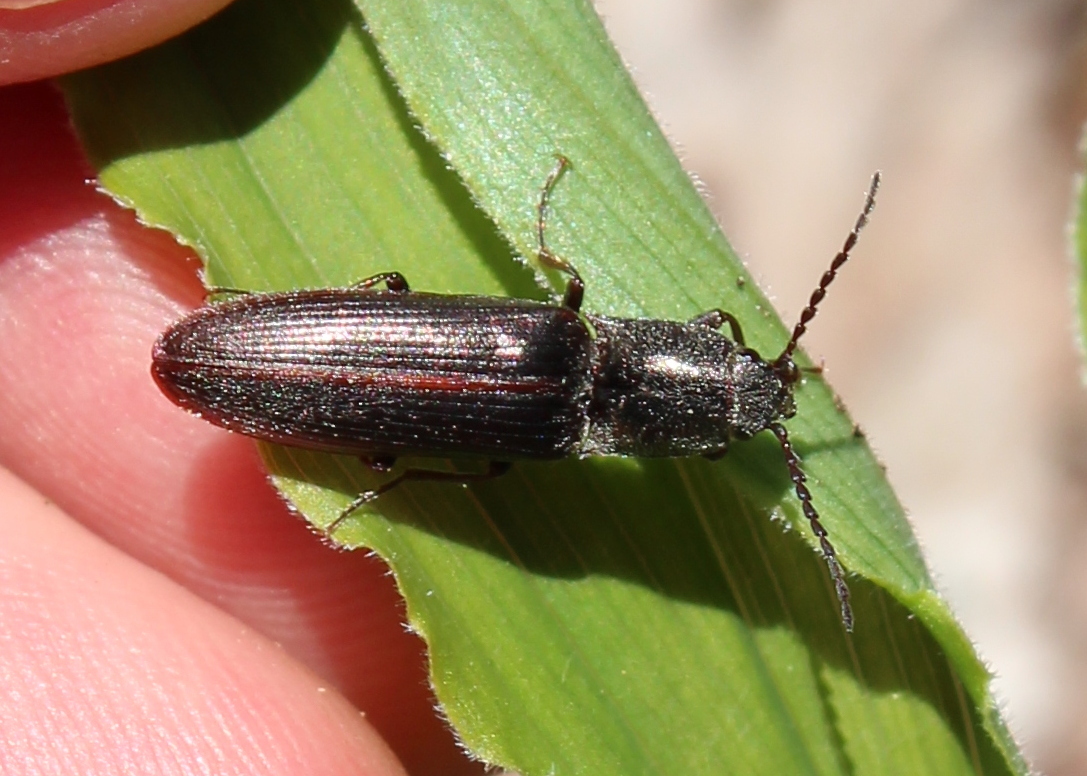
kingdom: Animalia
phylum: Arthropoda
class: Insecta
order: Coleoptera
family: Elateridae
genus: Sylvanelater
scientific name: Sylvanelater cylindriformis
